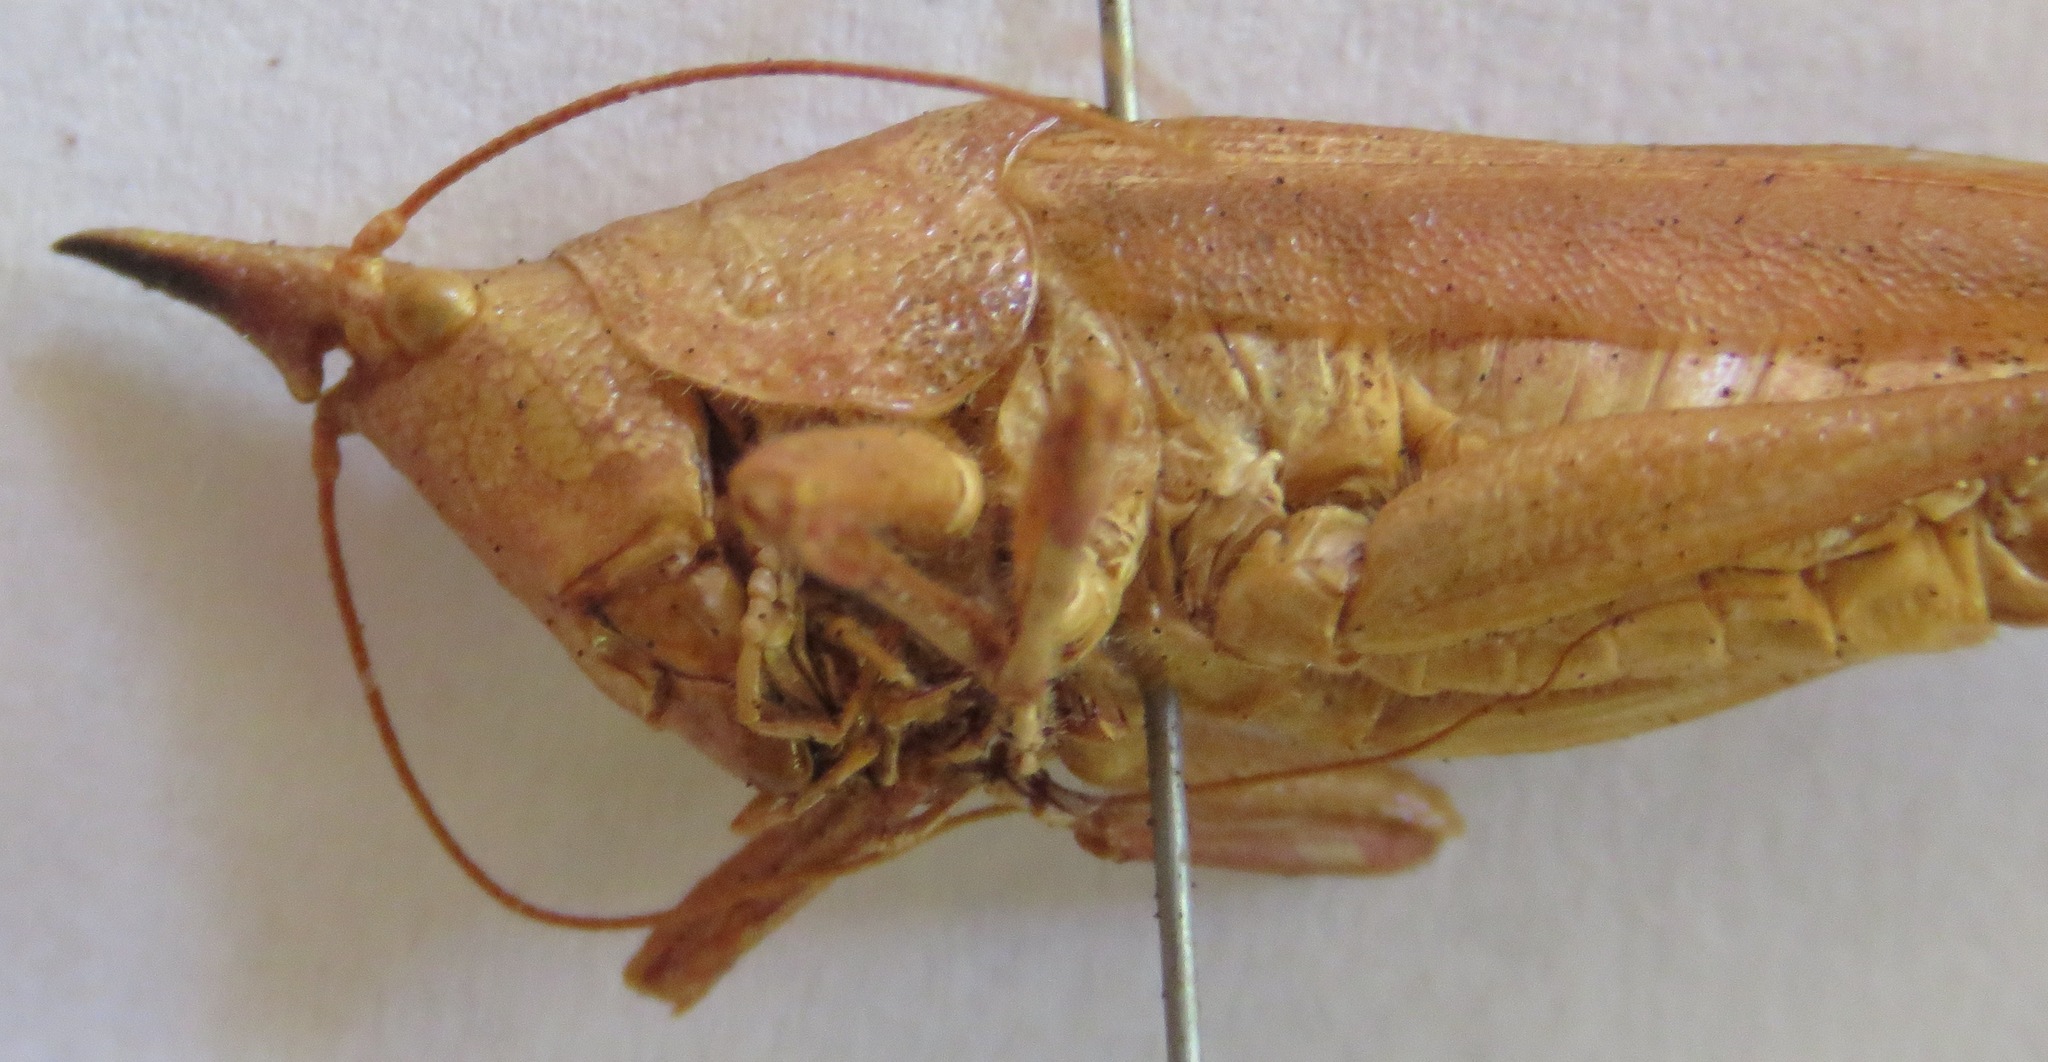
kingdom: Animalia
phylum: Arthropoda
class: Insecta
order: Orthoptera
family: Tettigoniidae
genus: Pyrgocorypha
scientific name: Pyrgocorypha rogersi
